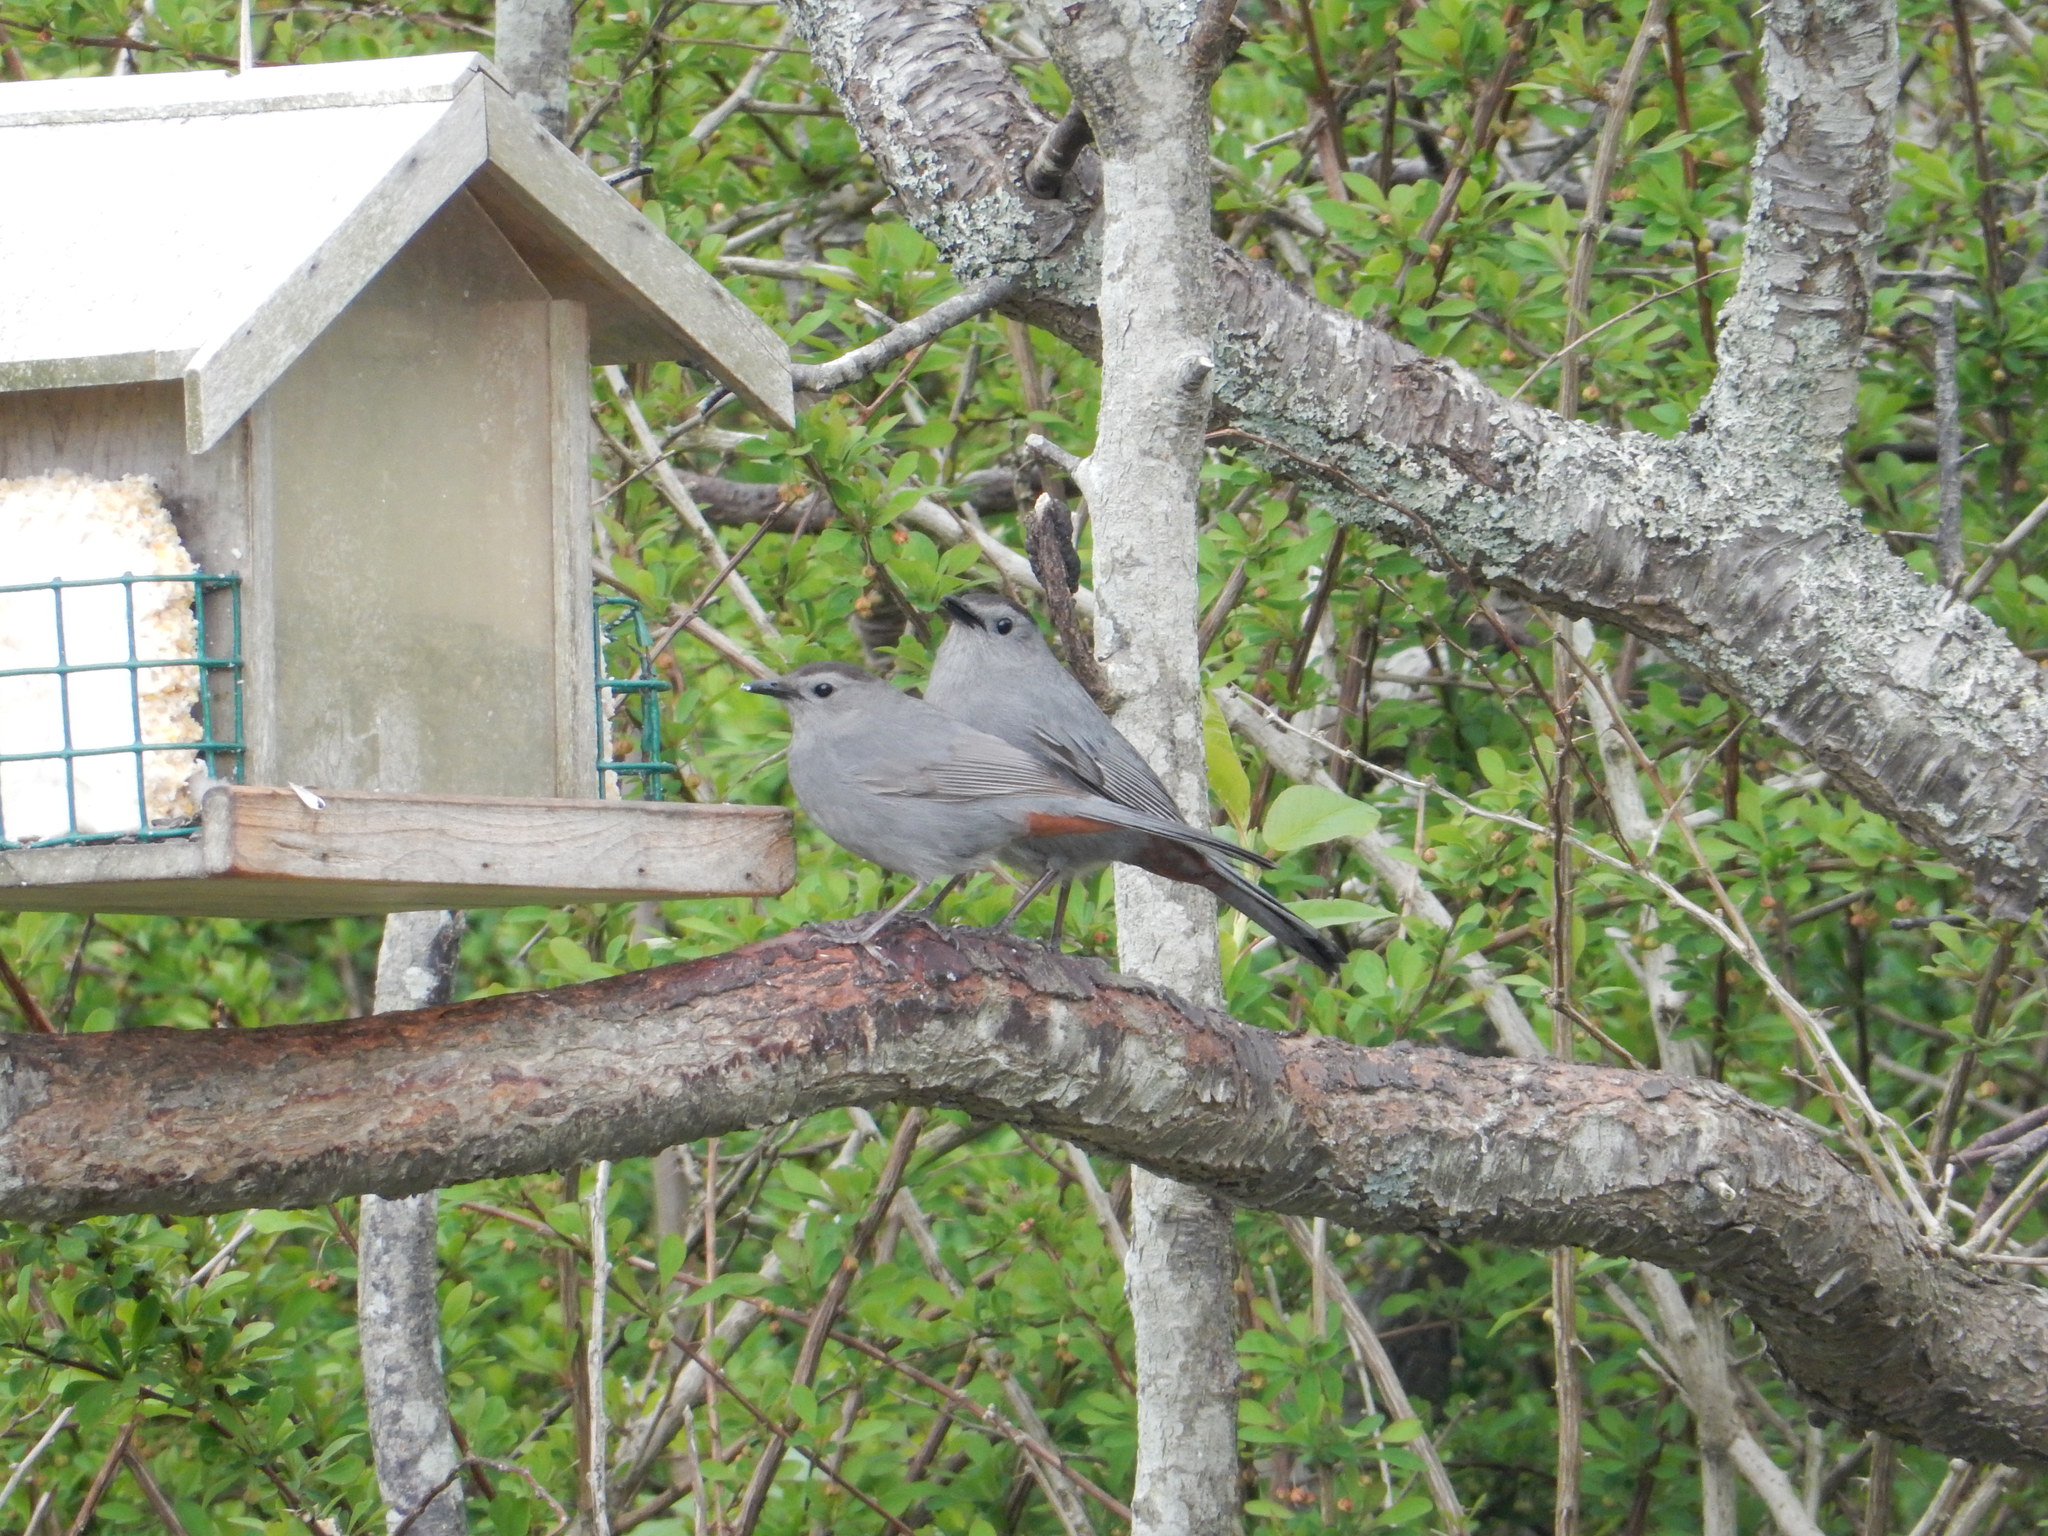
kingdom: Animalia
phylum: Chordata
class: Aves
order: Passeriformes
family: Mimidae
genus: Dumetella
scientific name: Dumetella carolinensis
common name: Gray catbird
